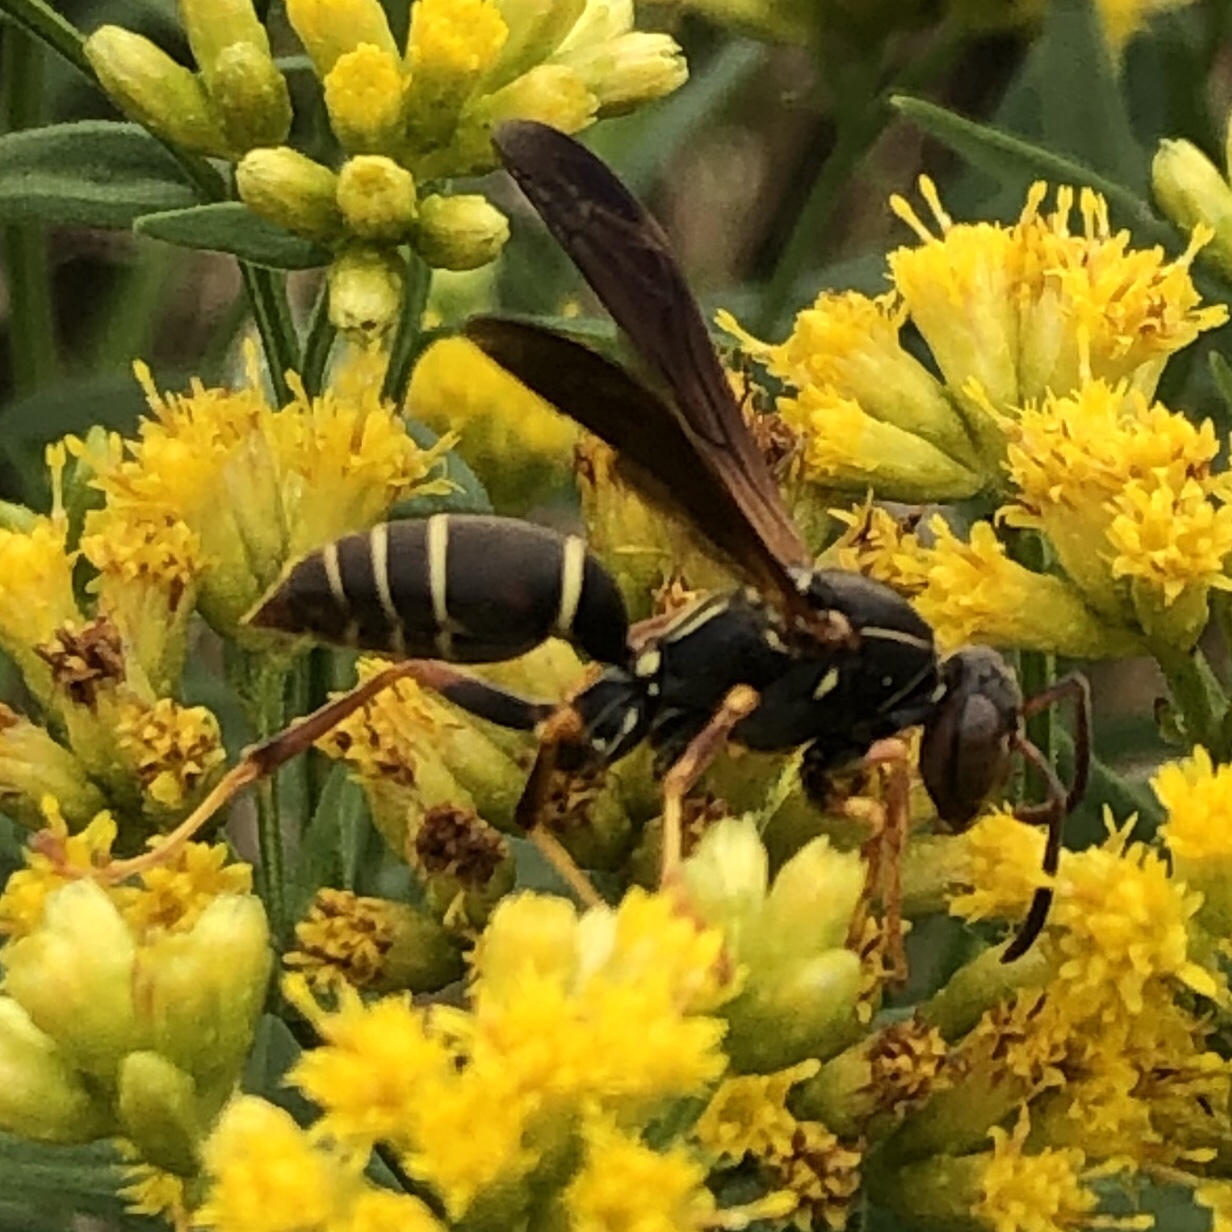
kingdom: Animalia
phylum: Arthropoda
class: Insecta
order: Hymenoptera
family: Eumenidae
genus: Polistes
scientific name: Polistes fuscatus
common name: Dark paper wasp
